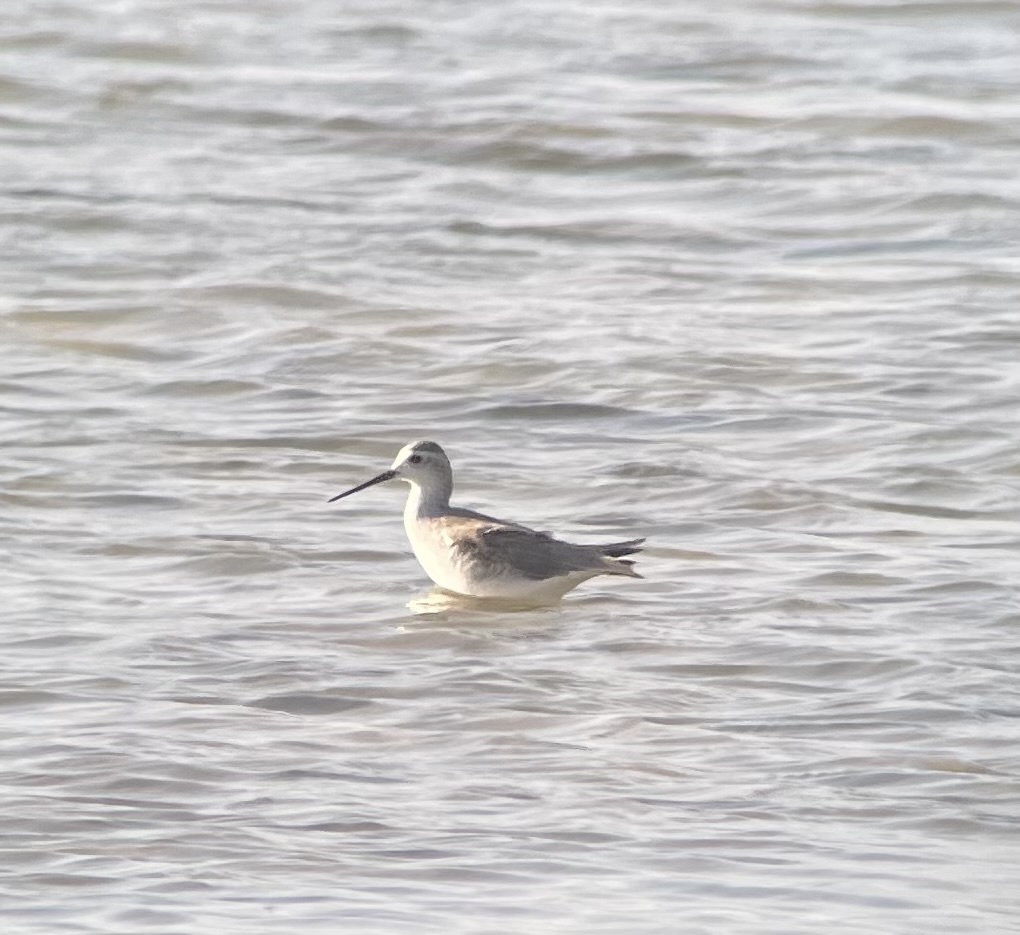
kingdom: Animalia
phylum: Chordata
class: Aves
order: Charadriiformes
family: Scolopacidae
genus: Tringa
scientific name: Tringa stagnatilis
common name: Marsh sandpiper
